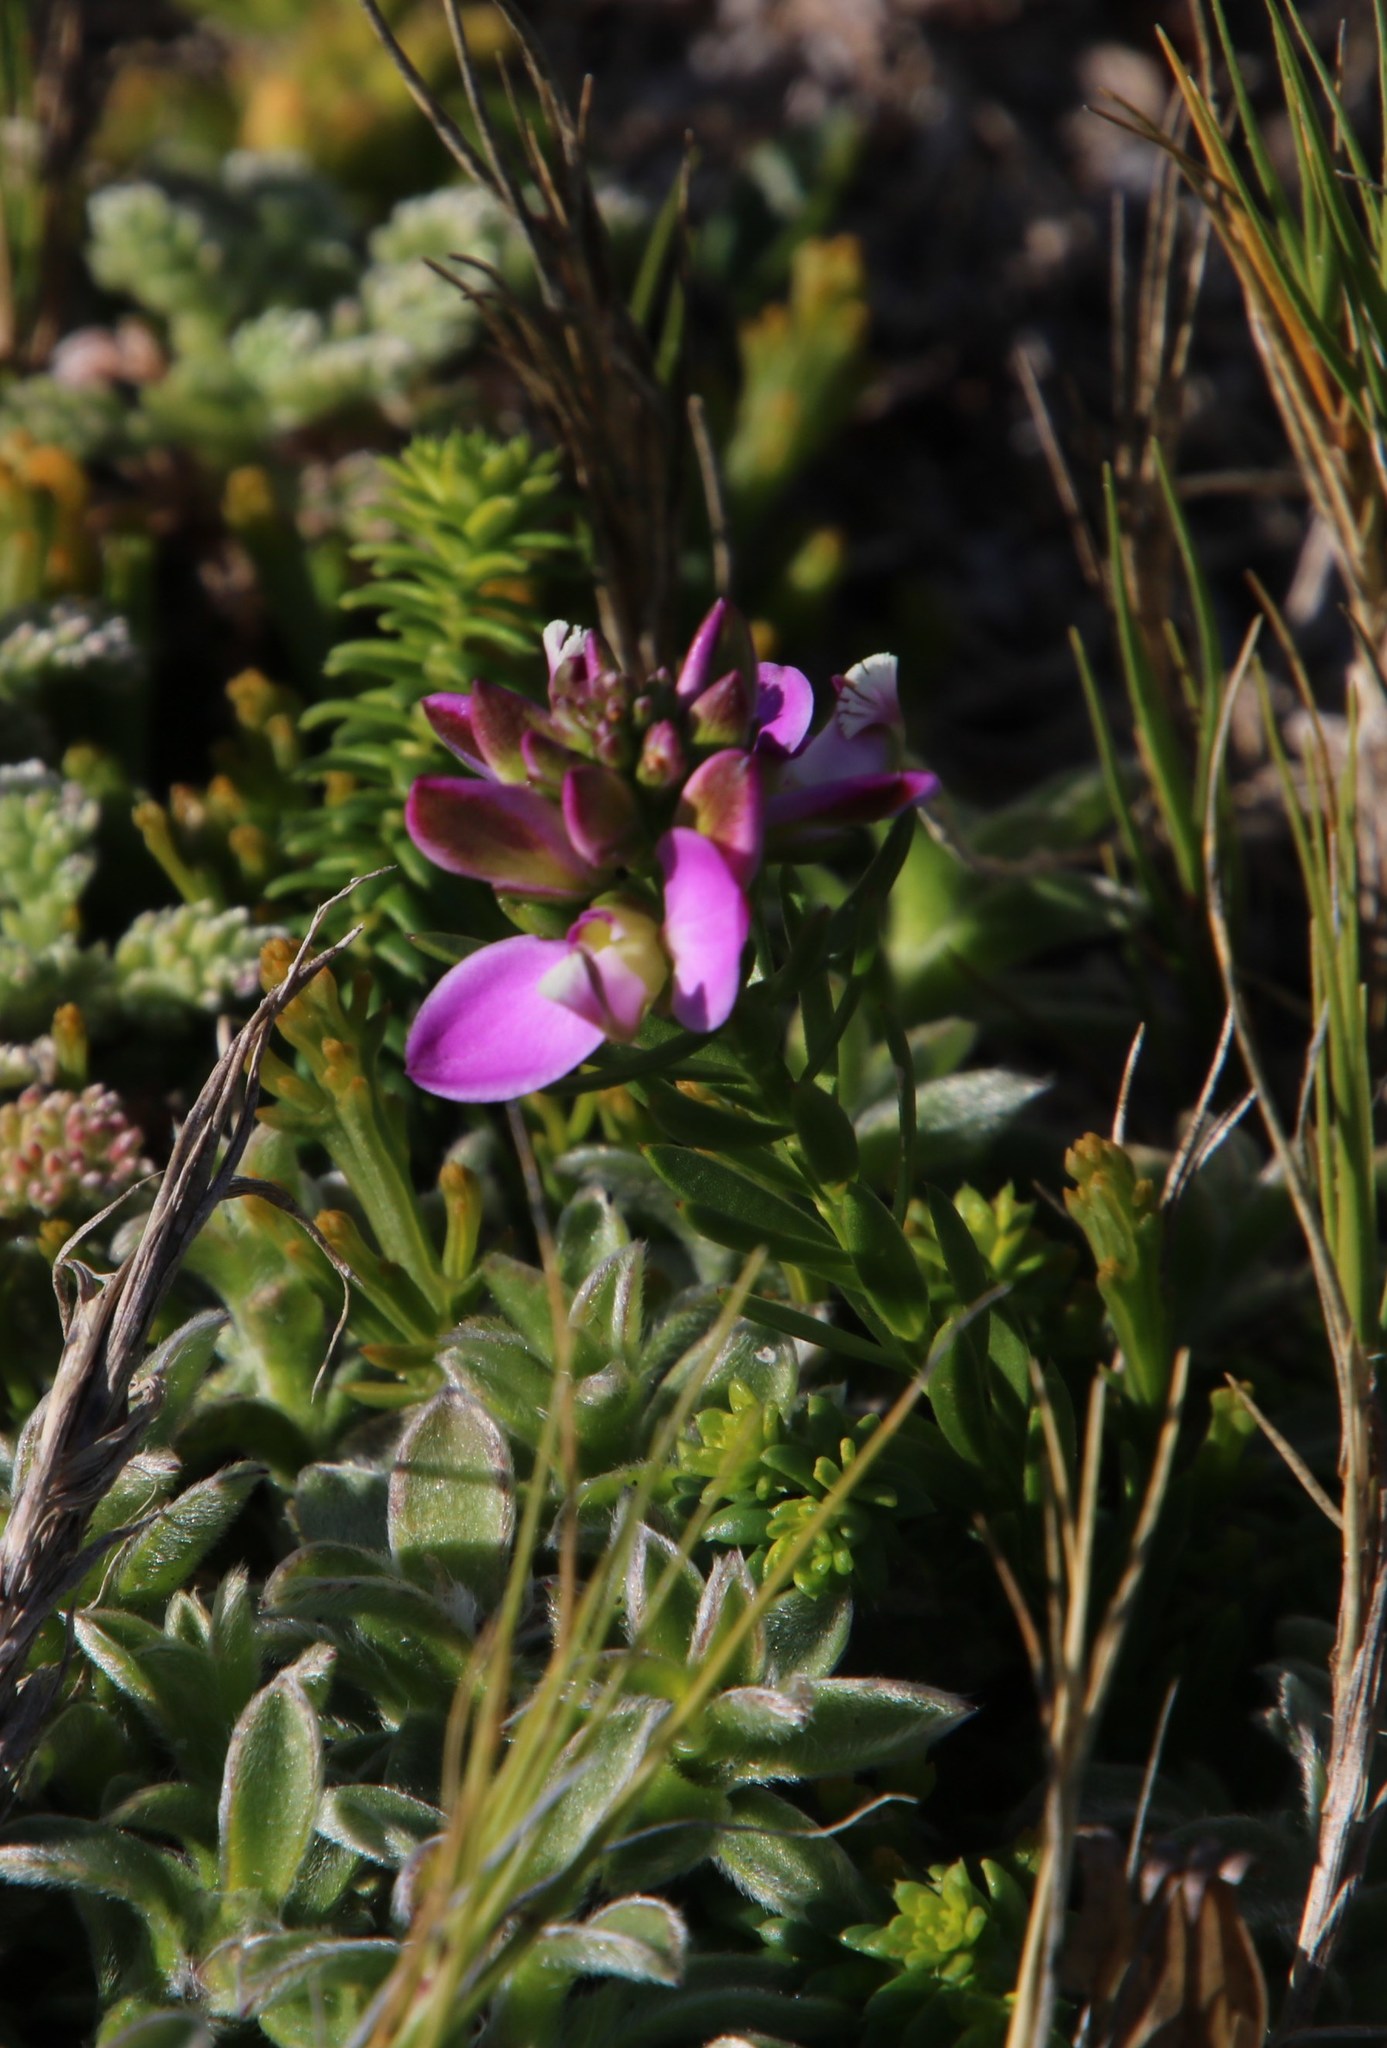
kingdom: Plantae
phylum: Tracheophyta
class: Magnoliopsida
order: Fabales
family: Polygalaceae
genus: Polygala
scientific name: Polygala ericifolia
